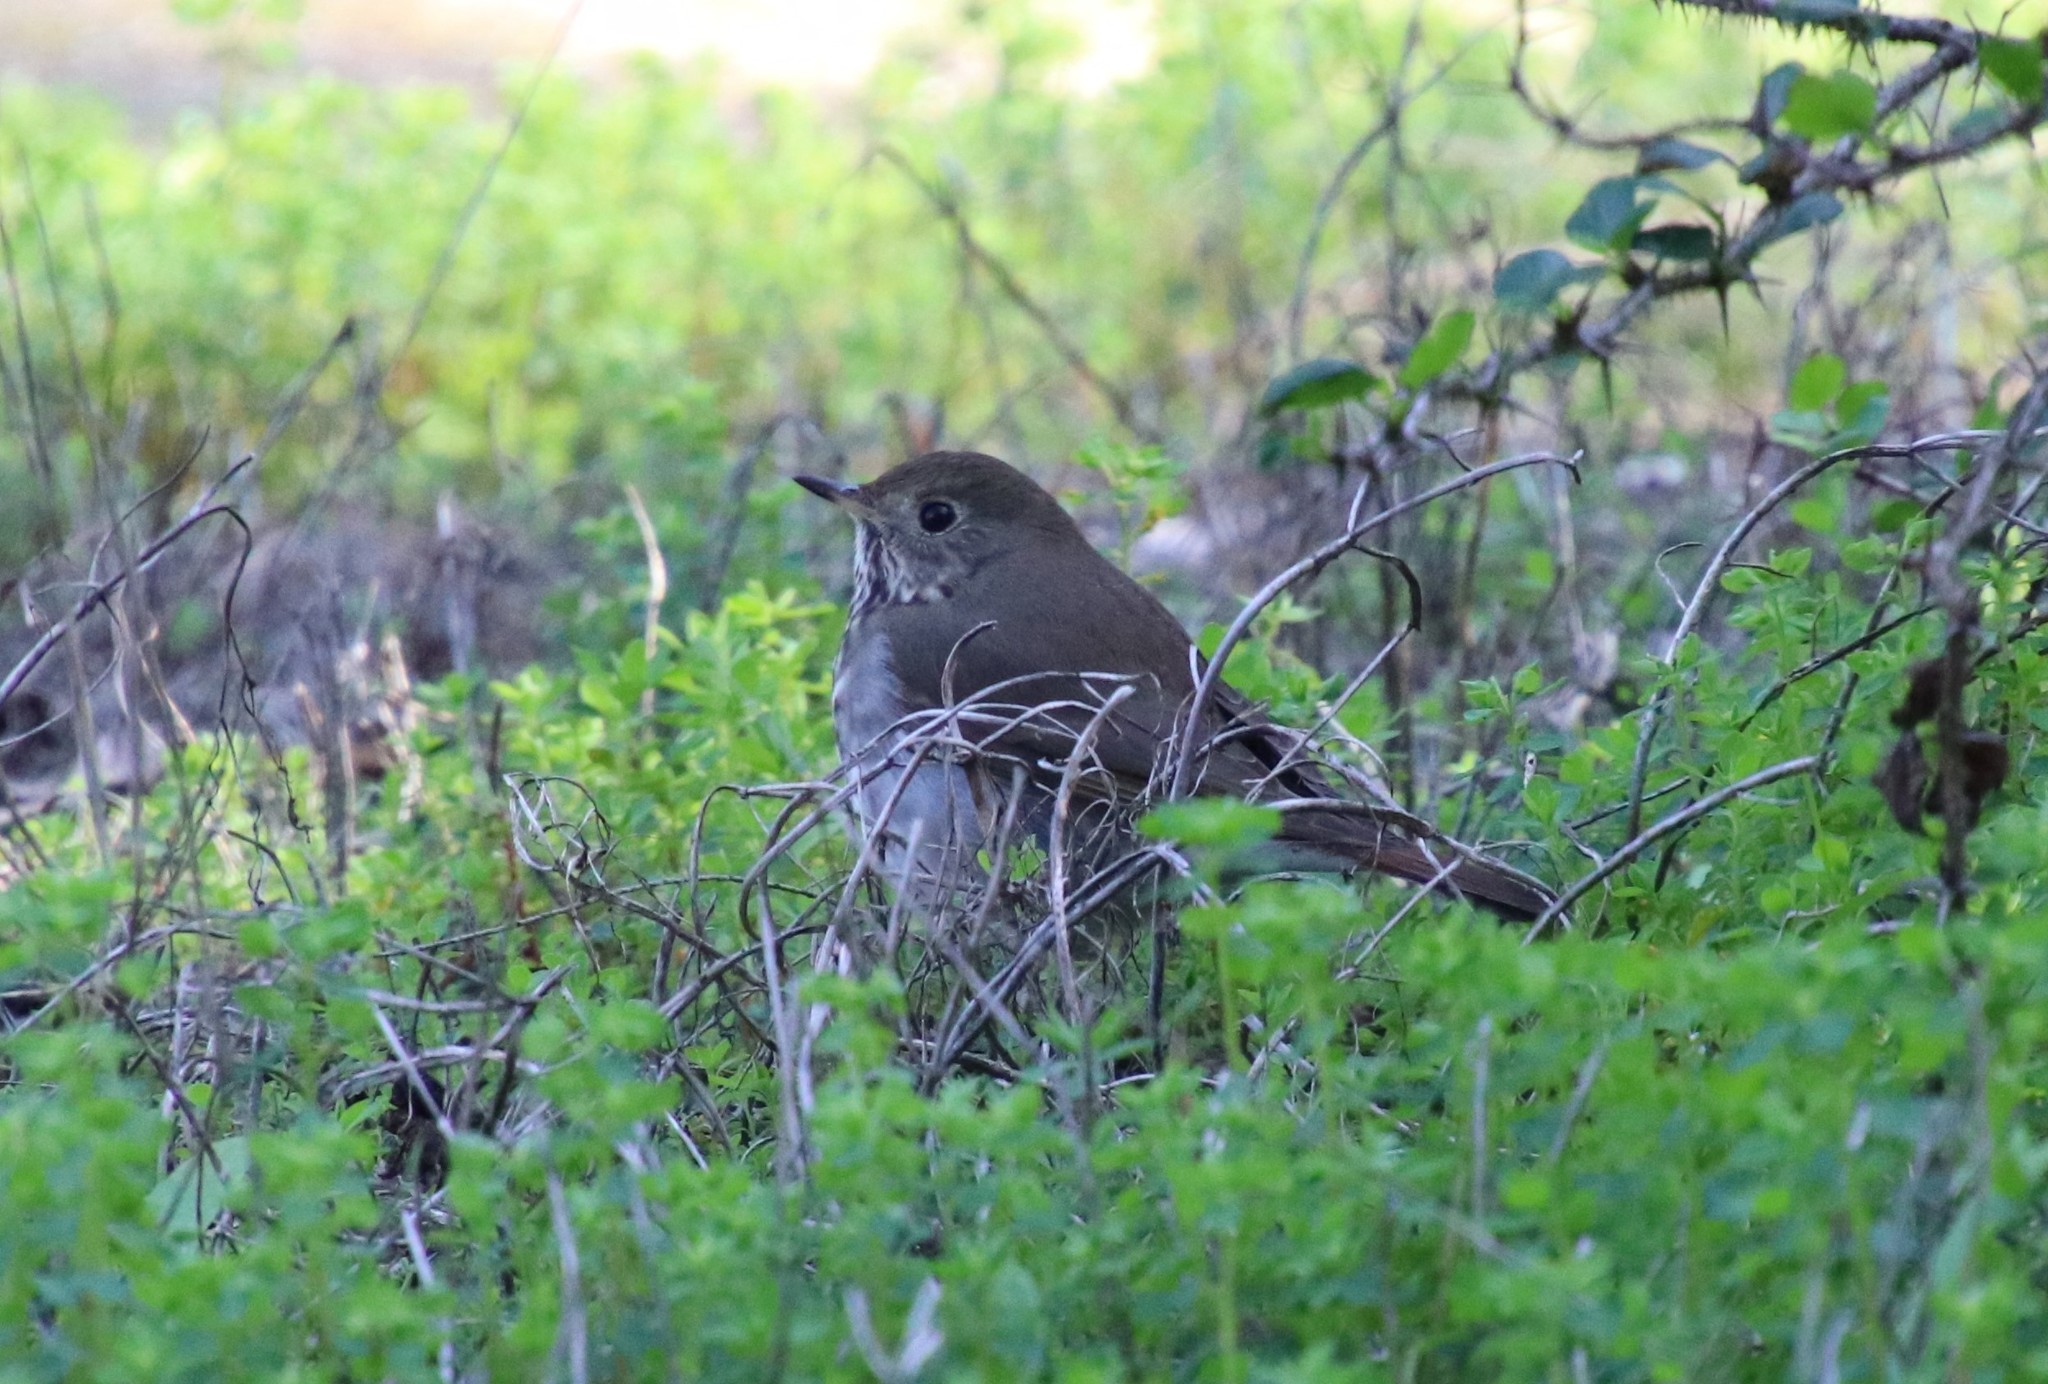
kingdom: Animalia
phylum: Chordata
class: Aves
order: Passeriformes
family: Turdidae
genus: Catharus
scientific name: Catharus guttatus
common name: Hermit thrush
